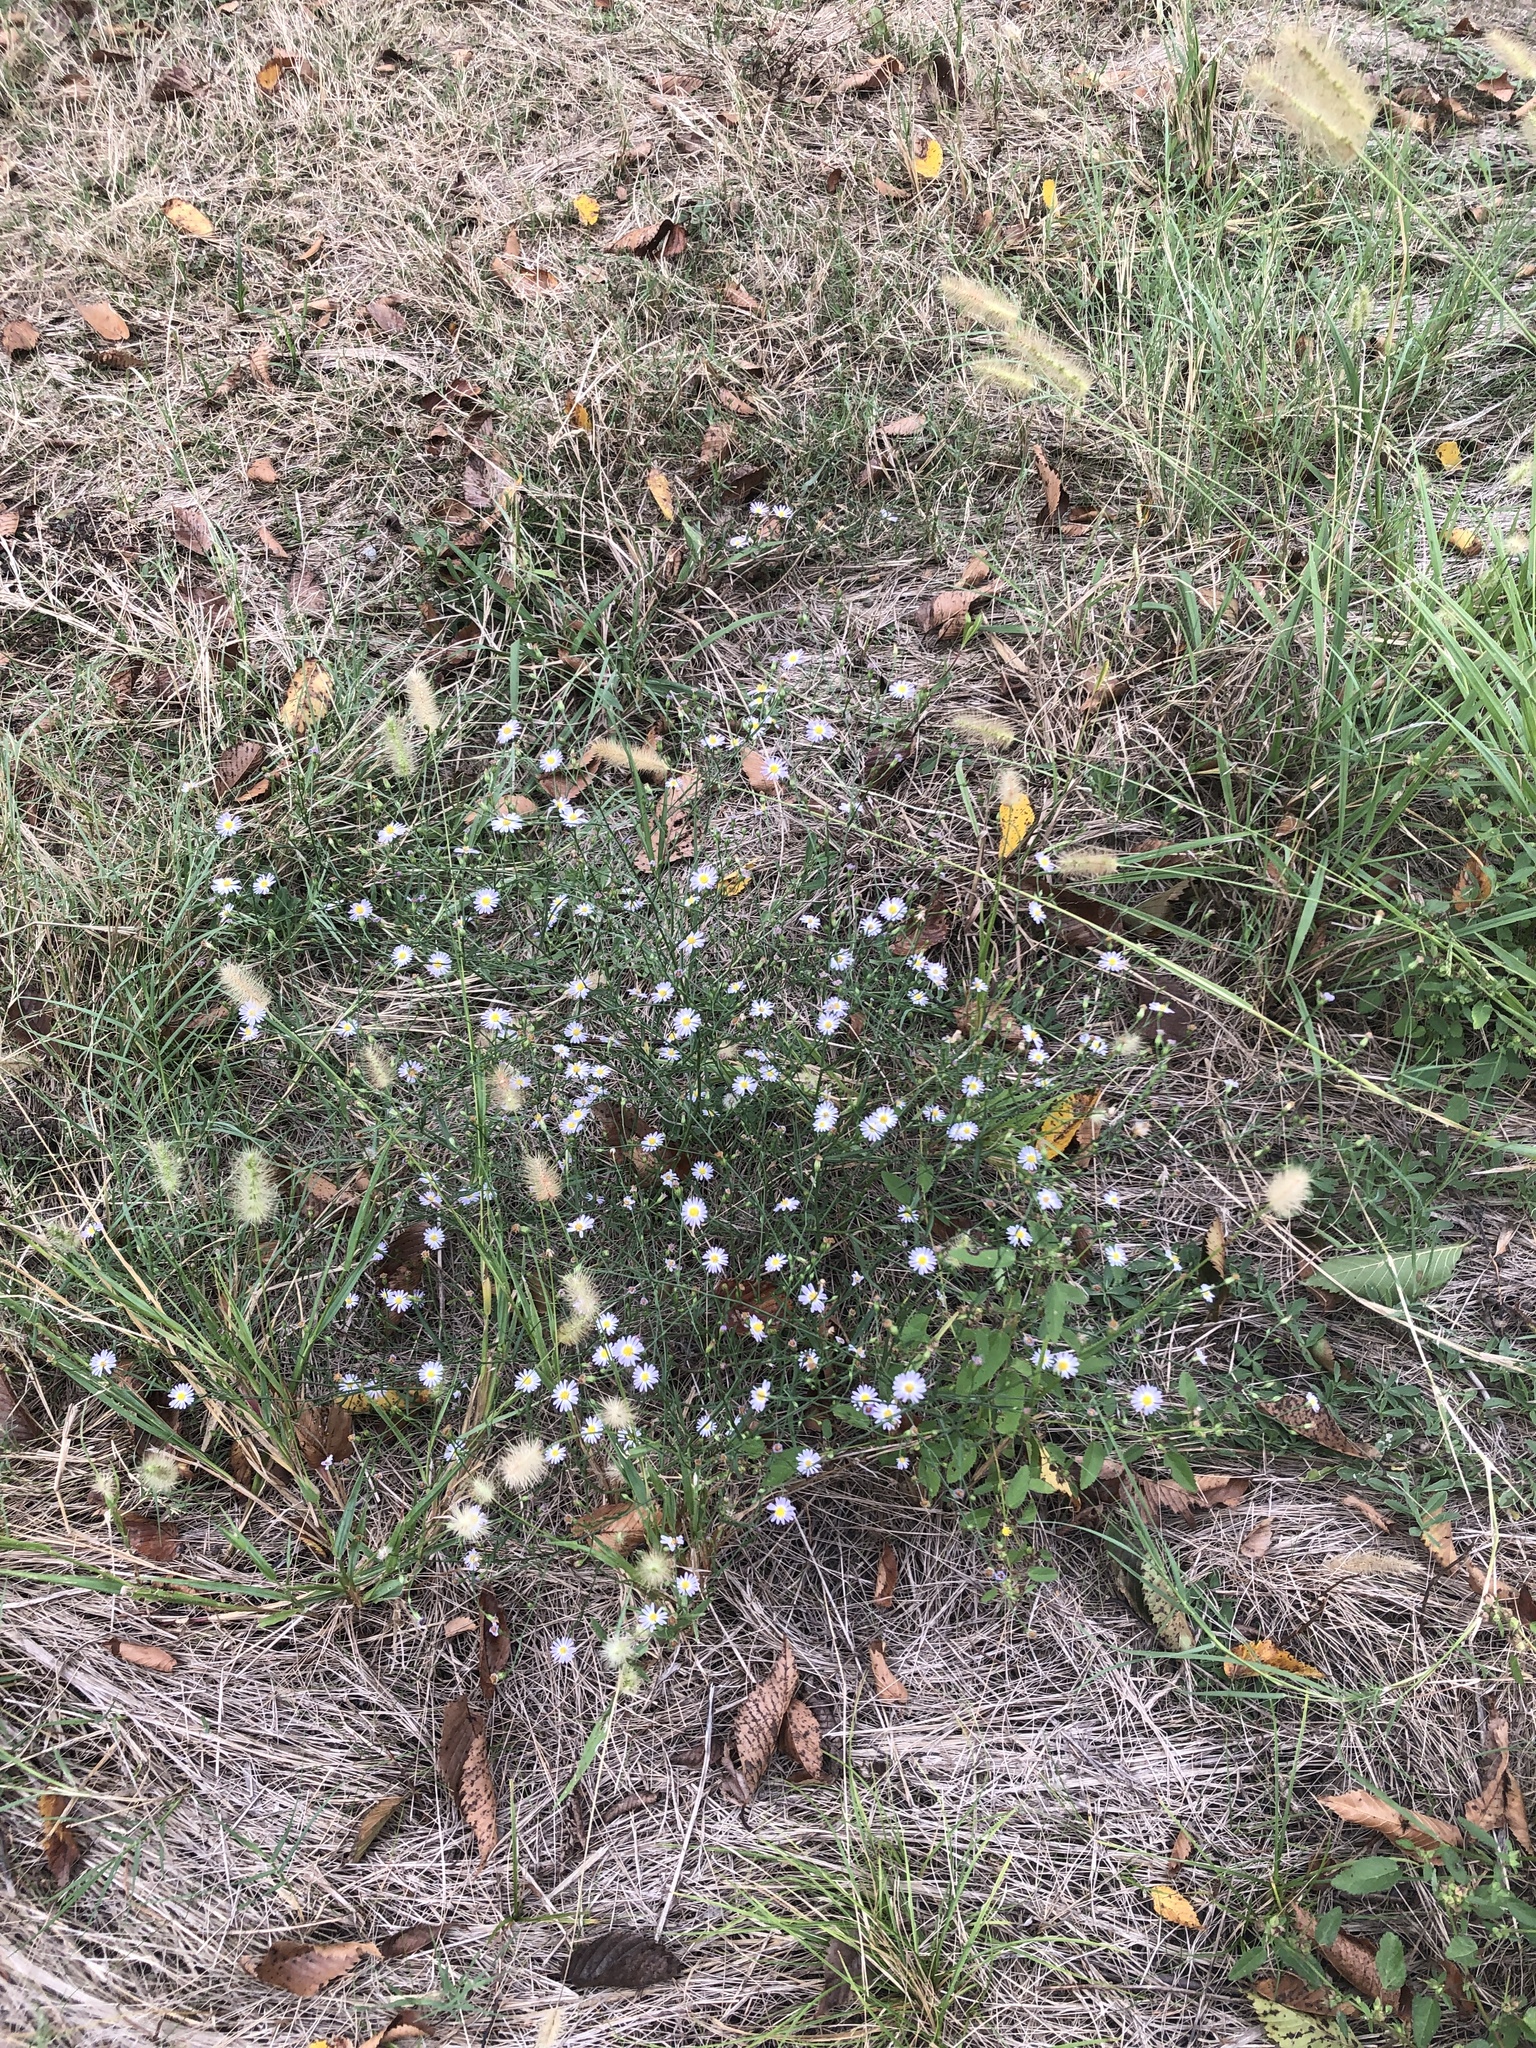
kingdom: Plantae
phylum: Tracheophyta
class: Magnoliopsida
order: Asterales
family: Asteraceae
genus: Symphyotrichum
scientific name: Symphyotrichum divaricatum
